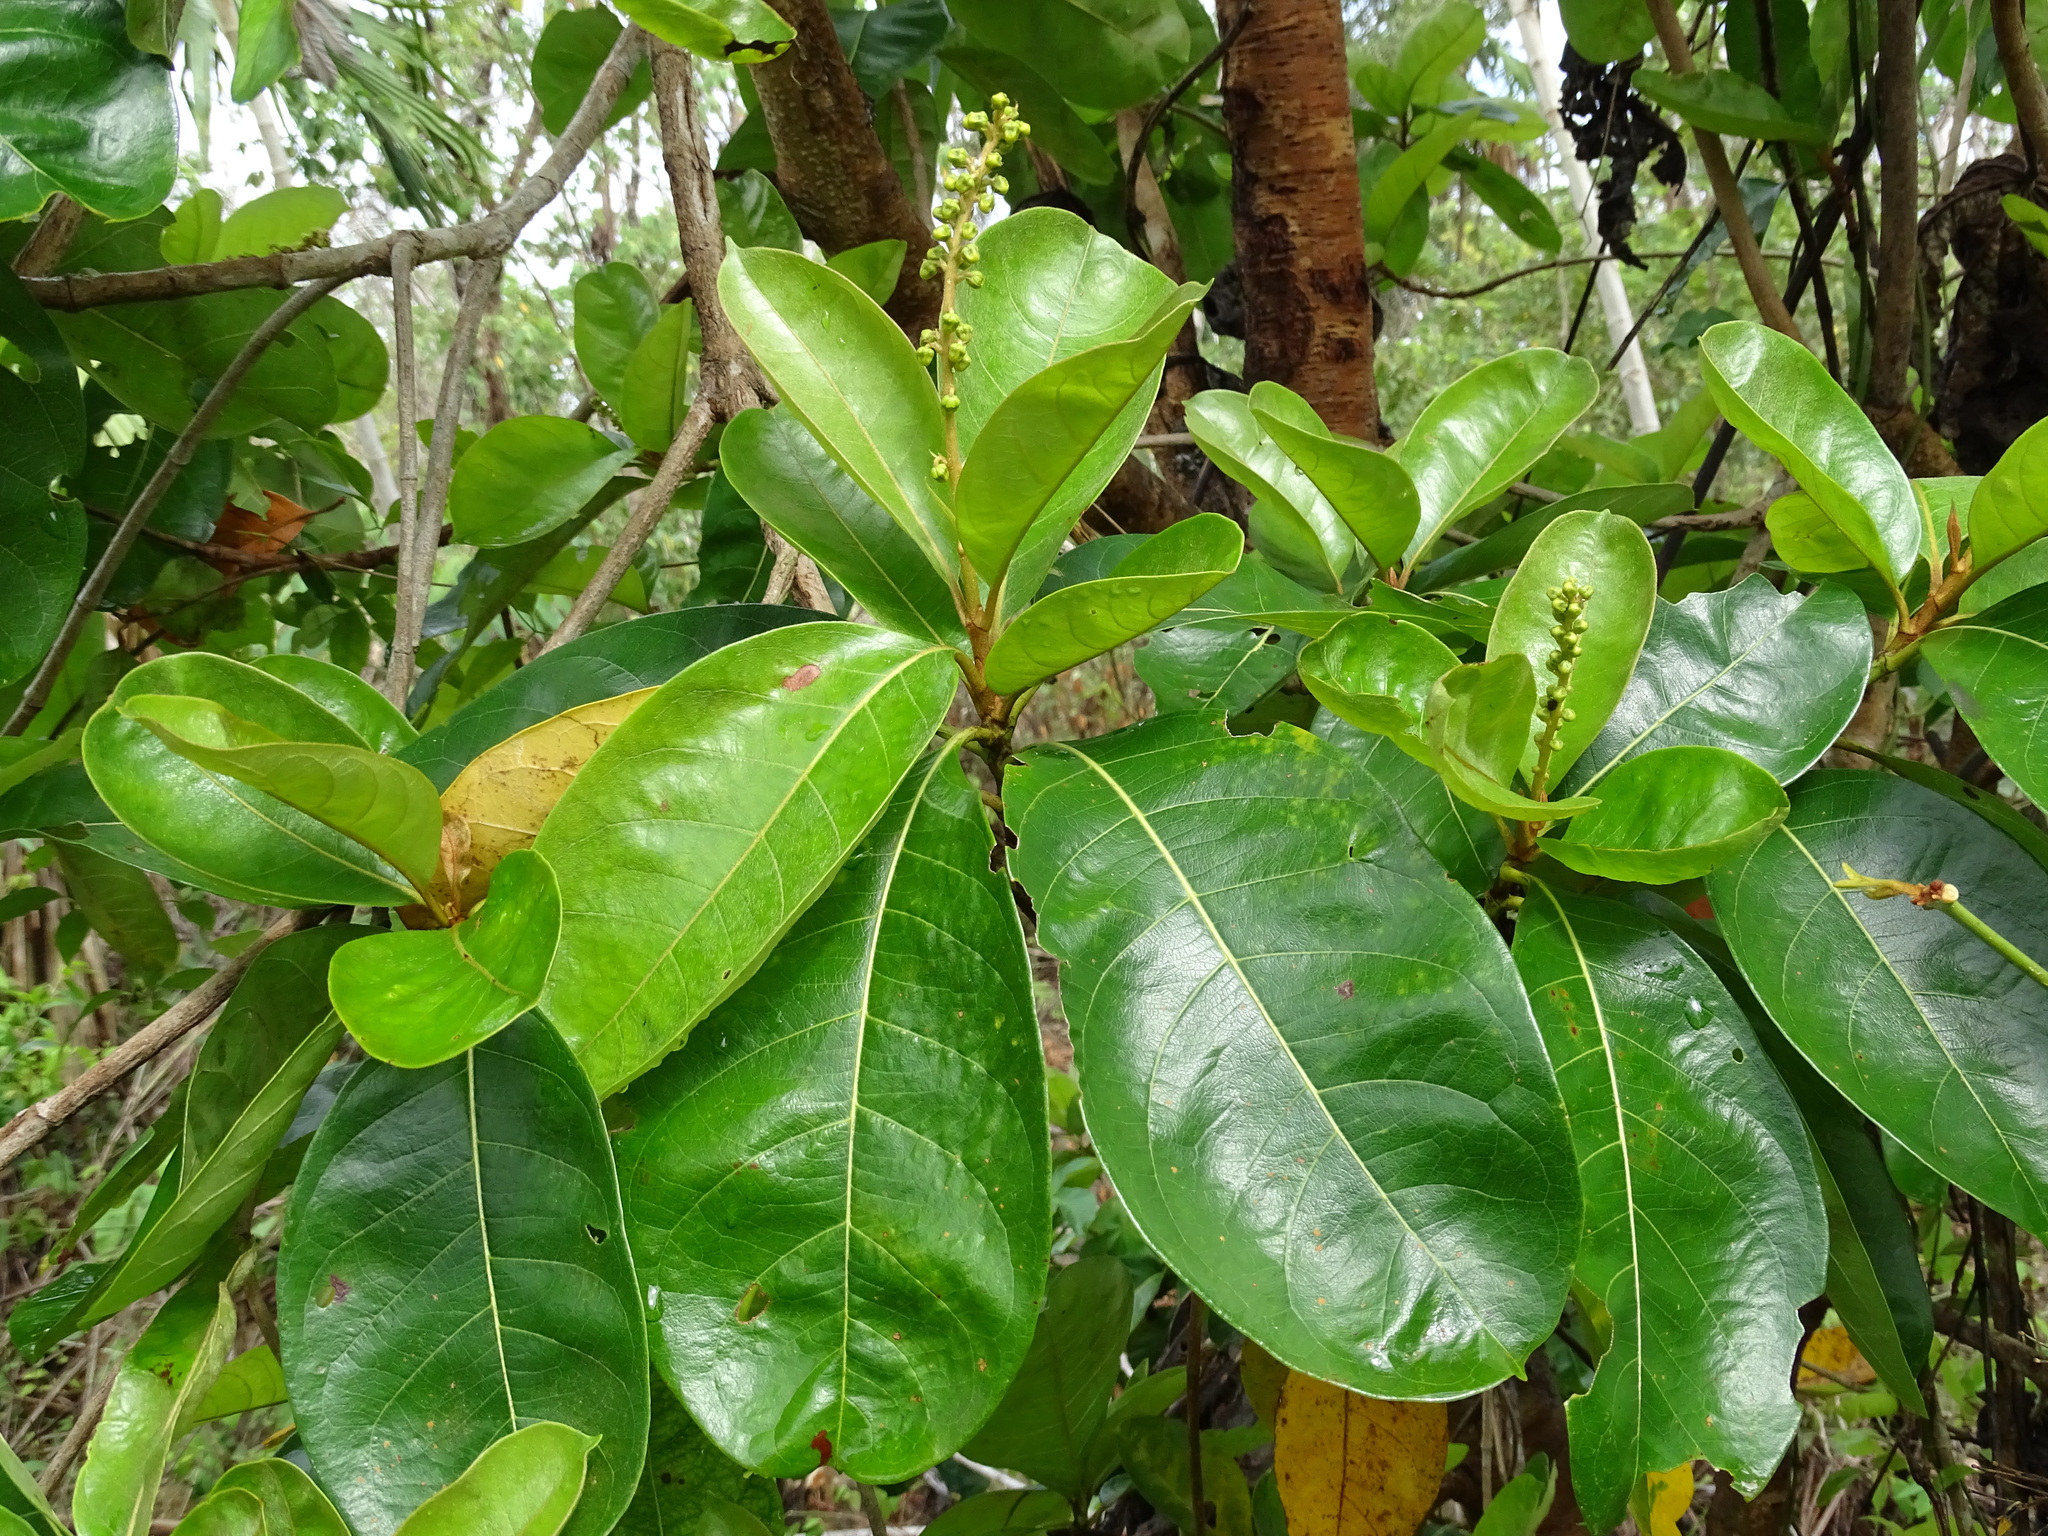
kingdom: Plantae
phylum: Tracheophyta
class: Magnoliopsida
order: Malpighiales
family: Malpighiaceae
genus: Byrsonima
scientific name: Byrsonima crassifolia
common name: Golden spoon
